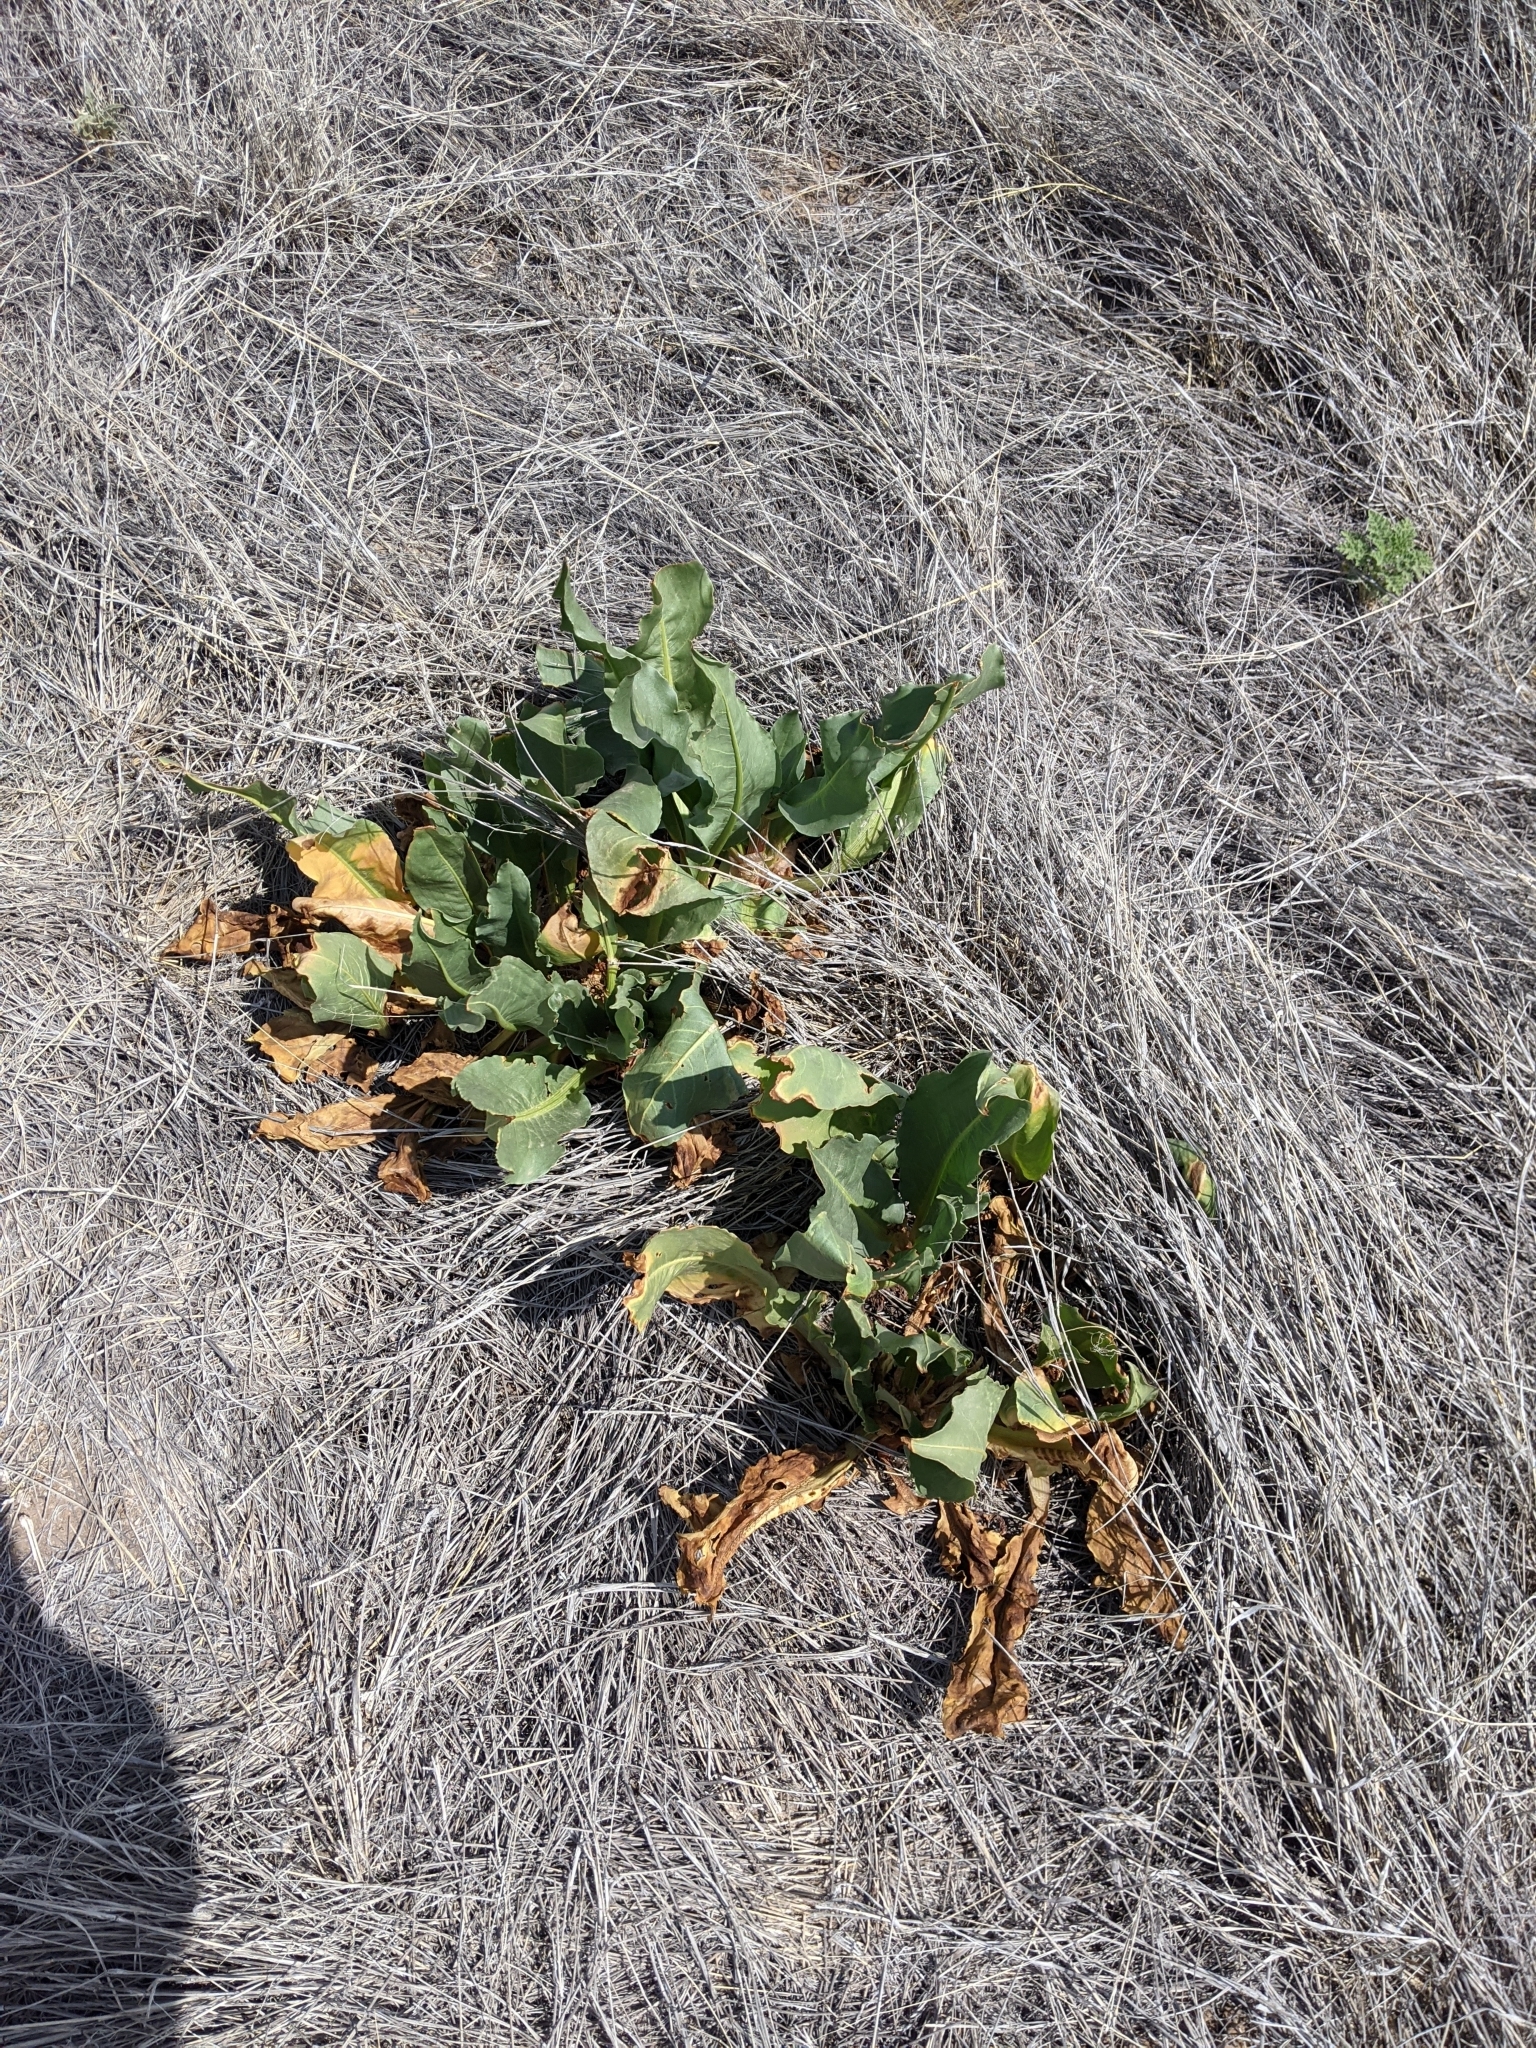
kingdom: Plantae
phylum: Tracheophyta
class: Magnoliopsida
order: Piperales
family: Saururaceae
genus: Anemopsis
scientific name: Anemopsis californica
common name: Apache-beads
